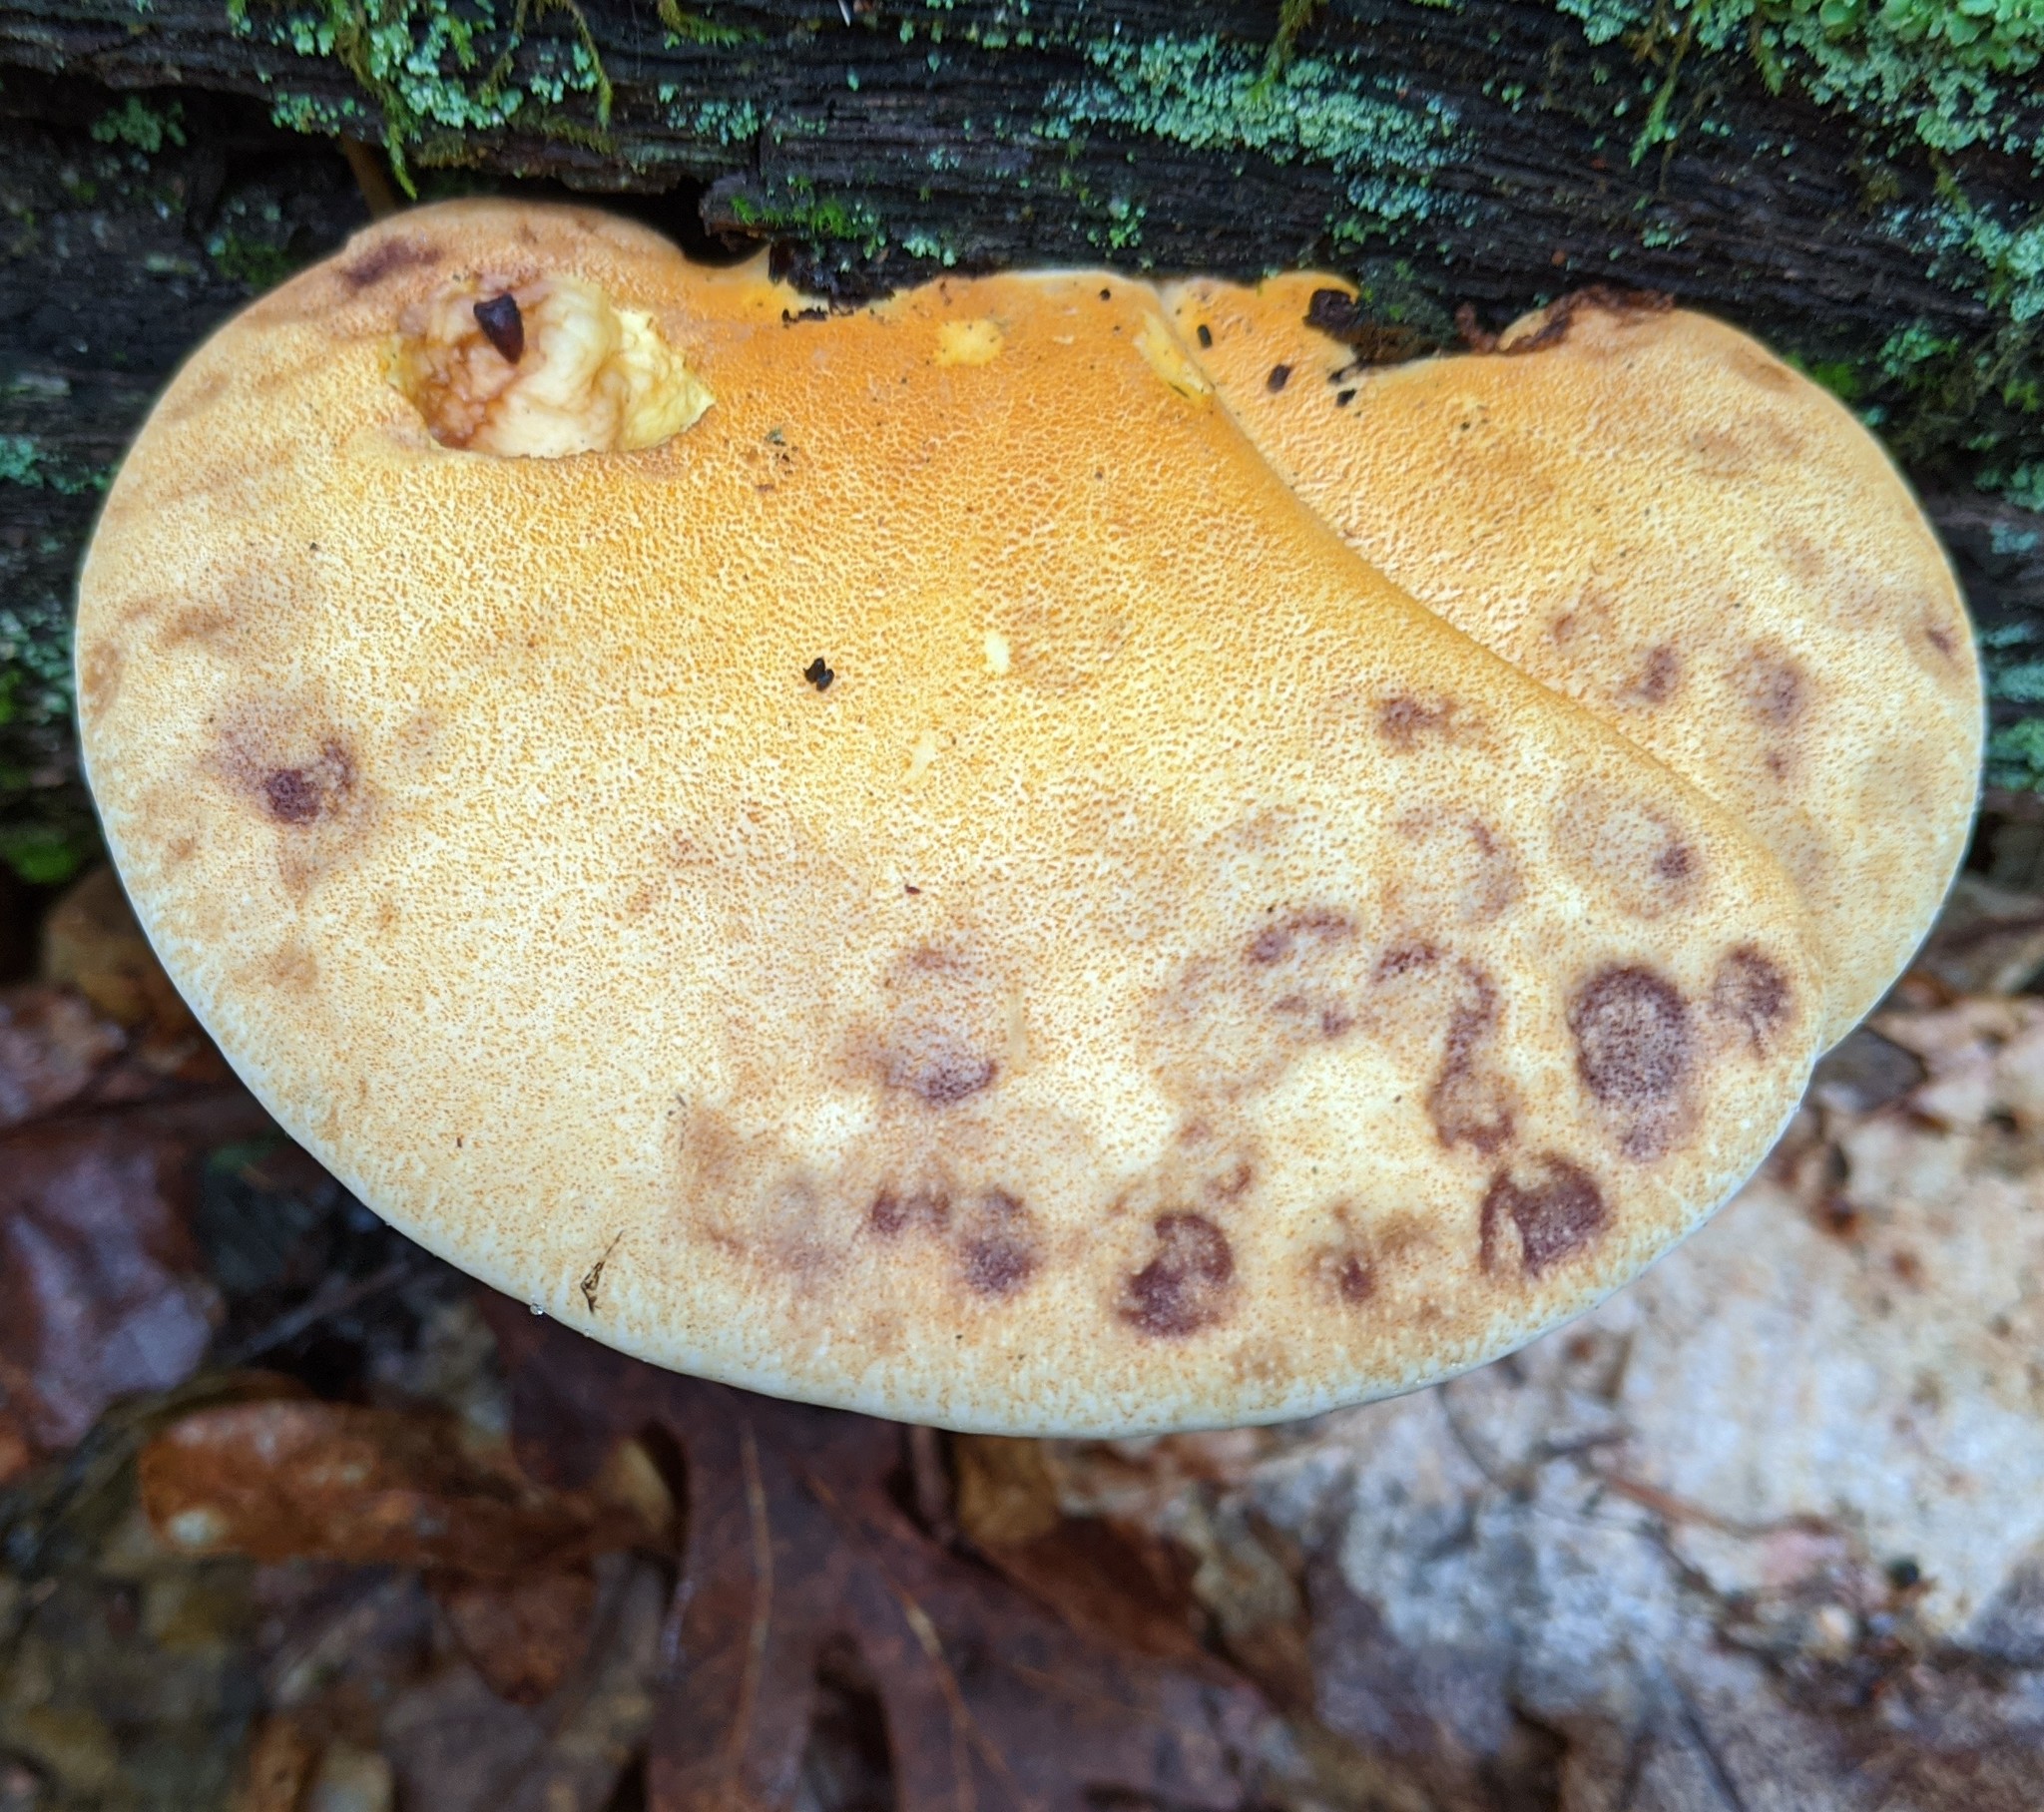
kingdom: Fungi
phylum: Basidiomycota
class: Agaricomycetes
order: Polyporales
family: Fomitopsidaceae
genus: Fomitopsis
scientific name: Fomitopsis
